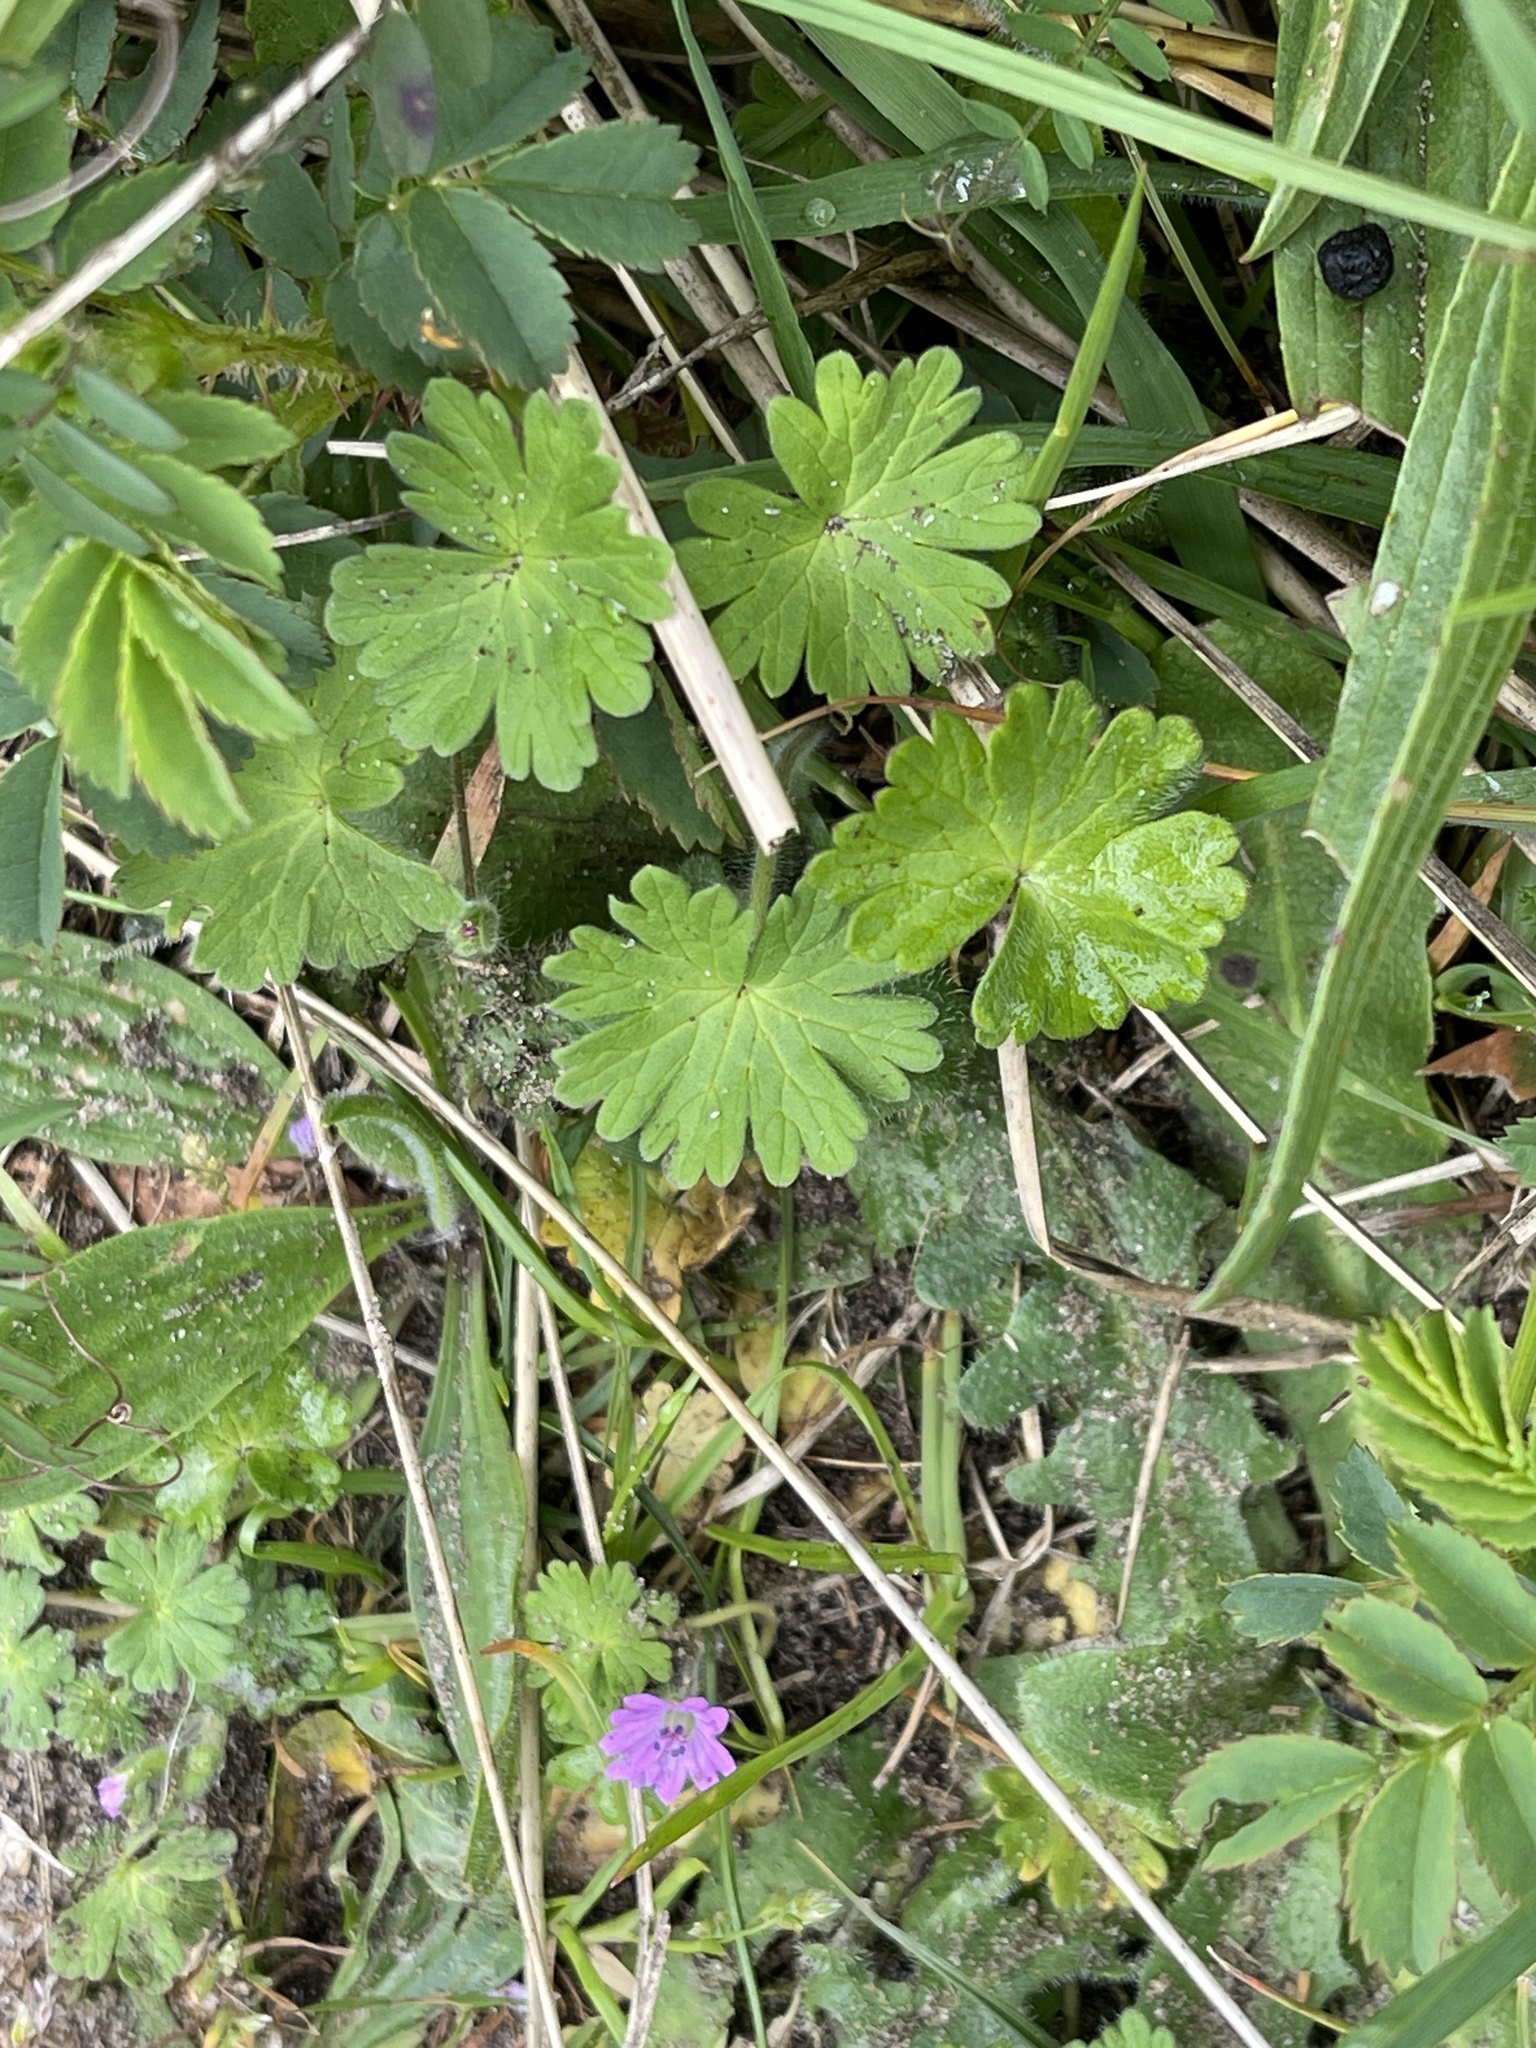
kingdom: Plantae
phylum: Tracheophyta
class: Magnoliopsida
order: Geraniales
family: Geraniaceae
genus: Geranium
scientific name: Geranium molle
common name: Dove's-foot crane's-bill
